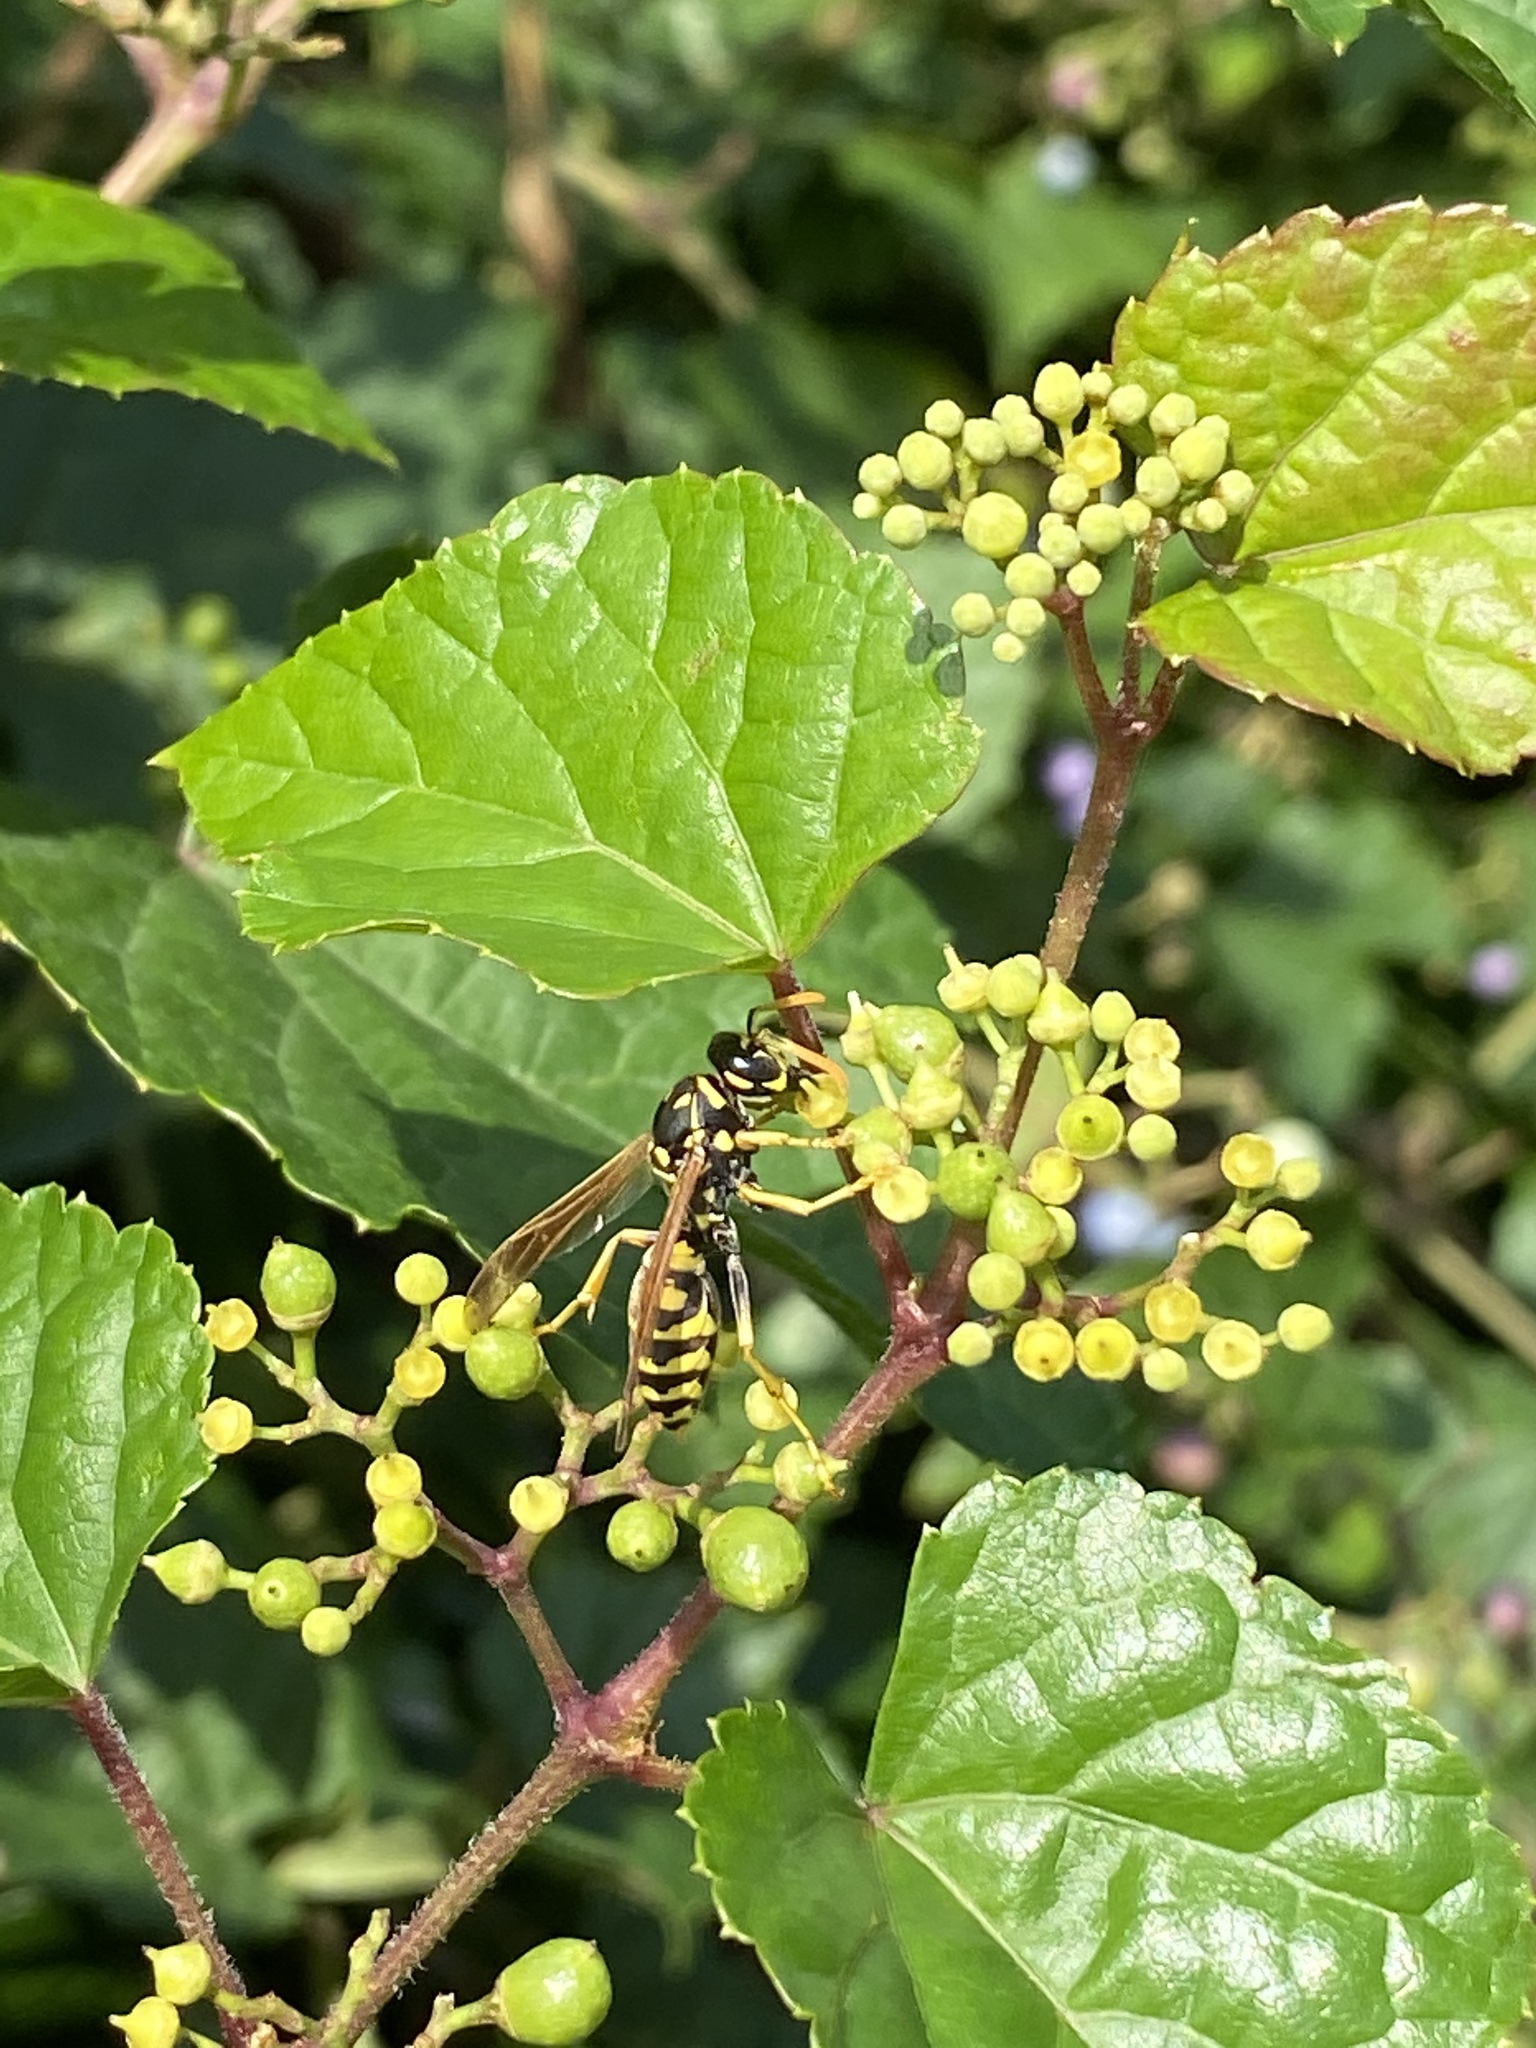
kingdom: Animalia
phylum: Arthropoda
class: Insecta
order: Hymenoptera
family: Eumenidae
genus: Polistes
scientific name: Polistes dominula
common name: Paper wasp
